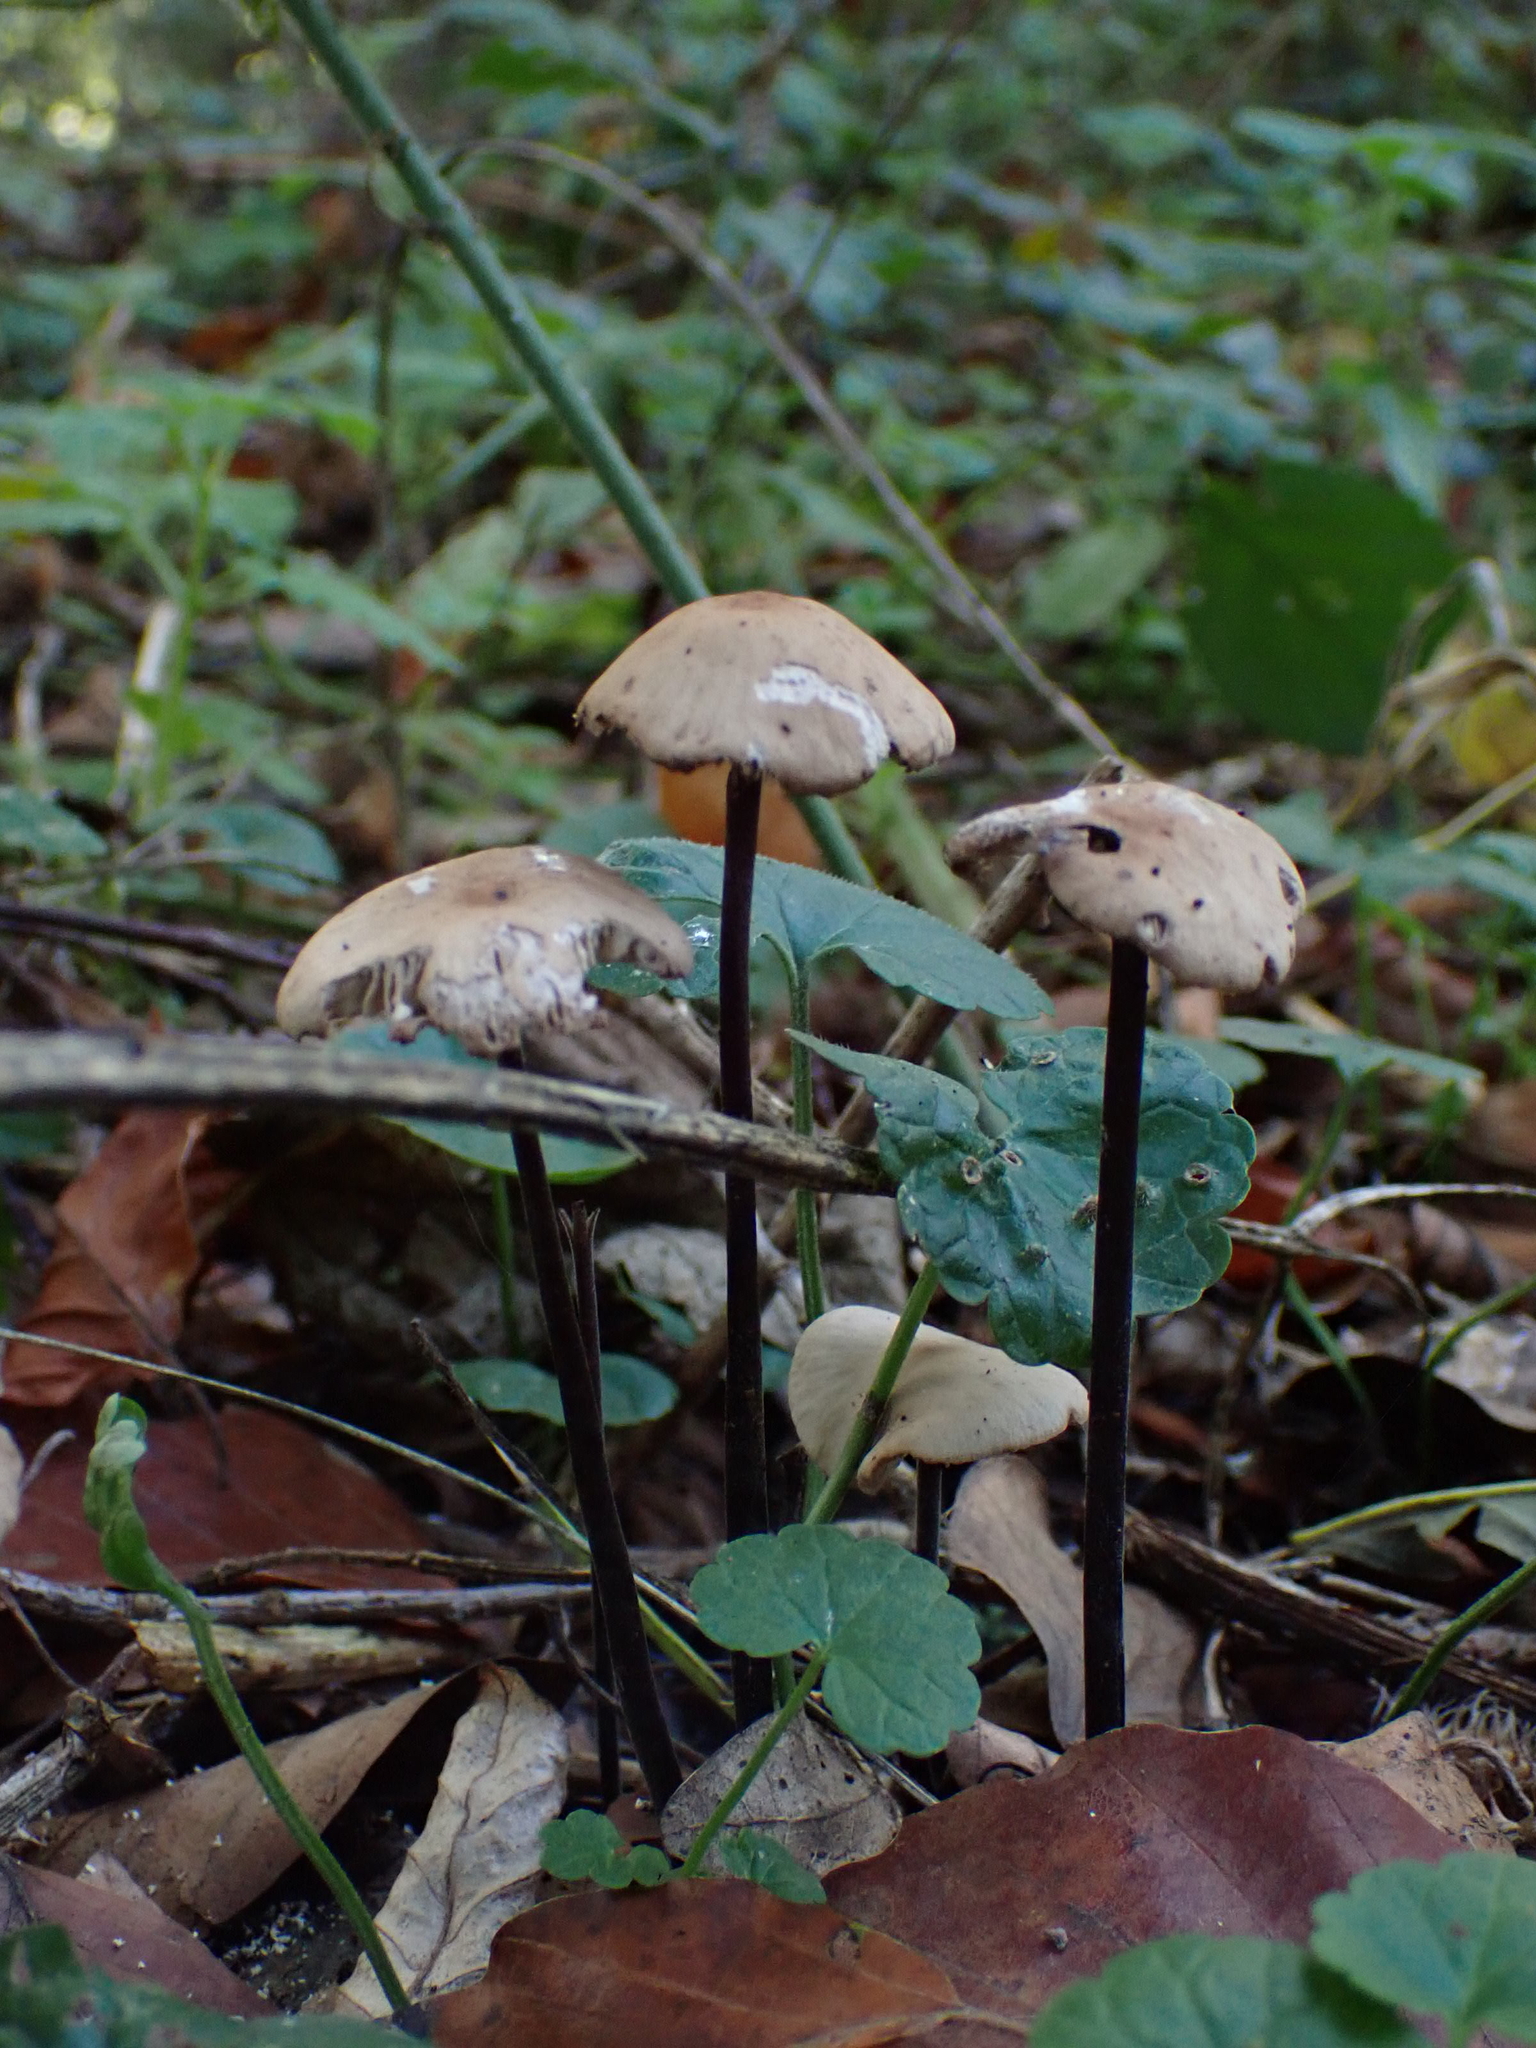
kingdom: Fungi
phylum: Basidiomycota
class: Agaricomycetes
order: Agaricales
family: Omphalotaceae
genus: Mycetinis
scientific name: Mycetinis alliaceus
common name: Garlic parachute
